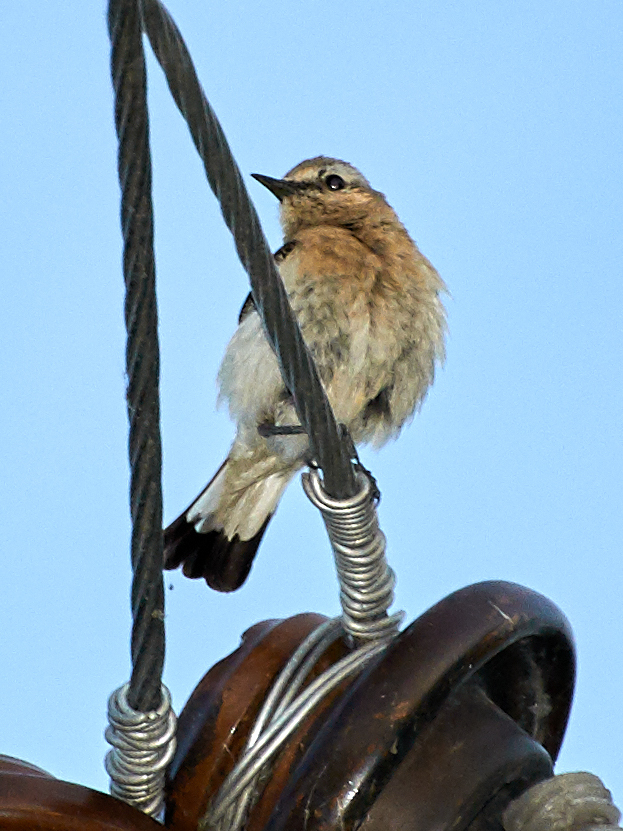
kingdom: Animalia
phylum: Chordata
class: Aves
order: Passeriformes
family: Muscicapidae
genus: Oenanthe
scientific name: Oenanthe oenanthe
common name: Northern wheatear
